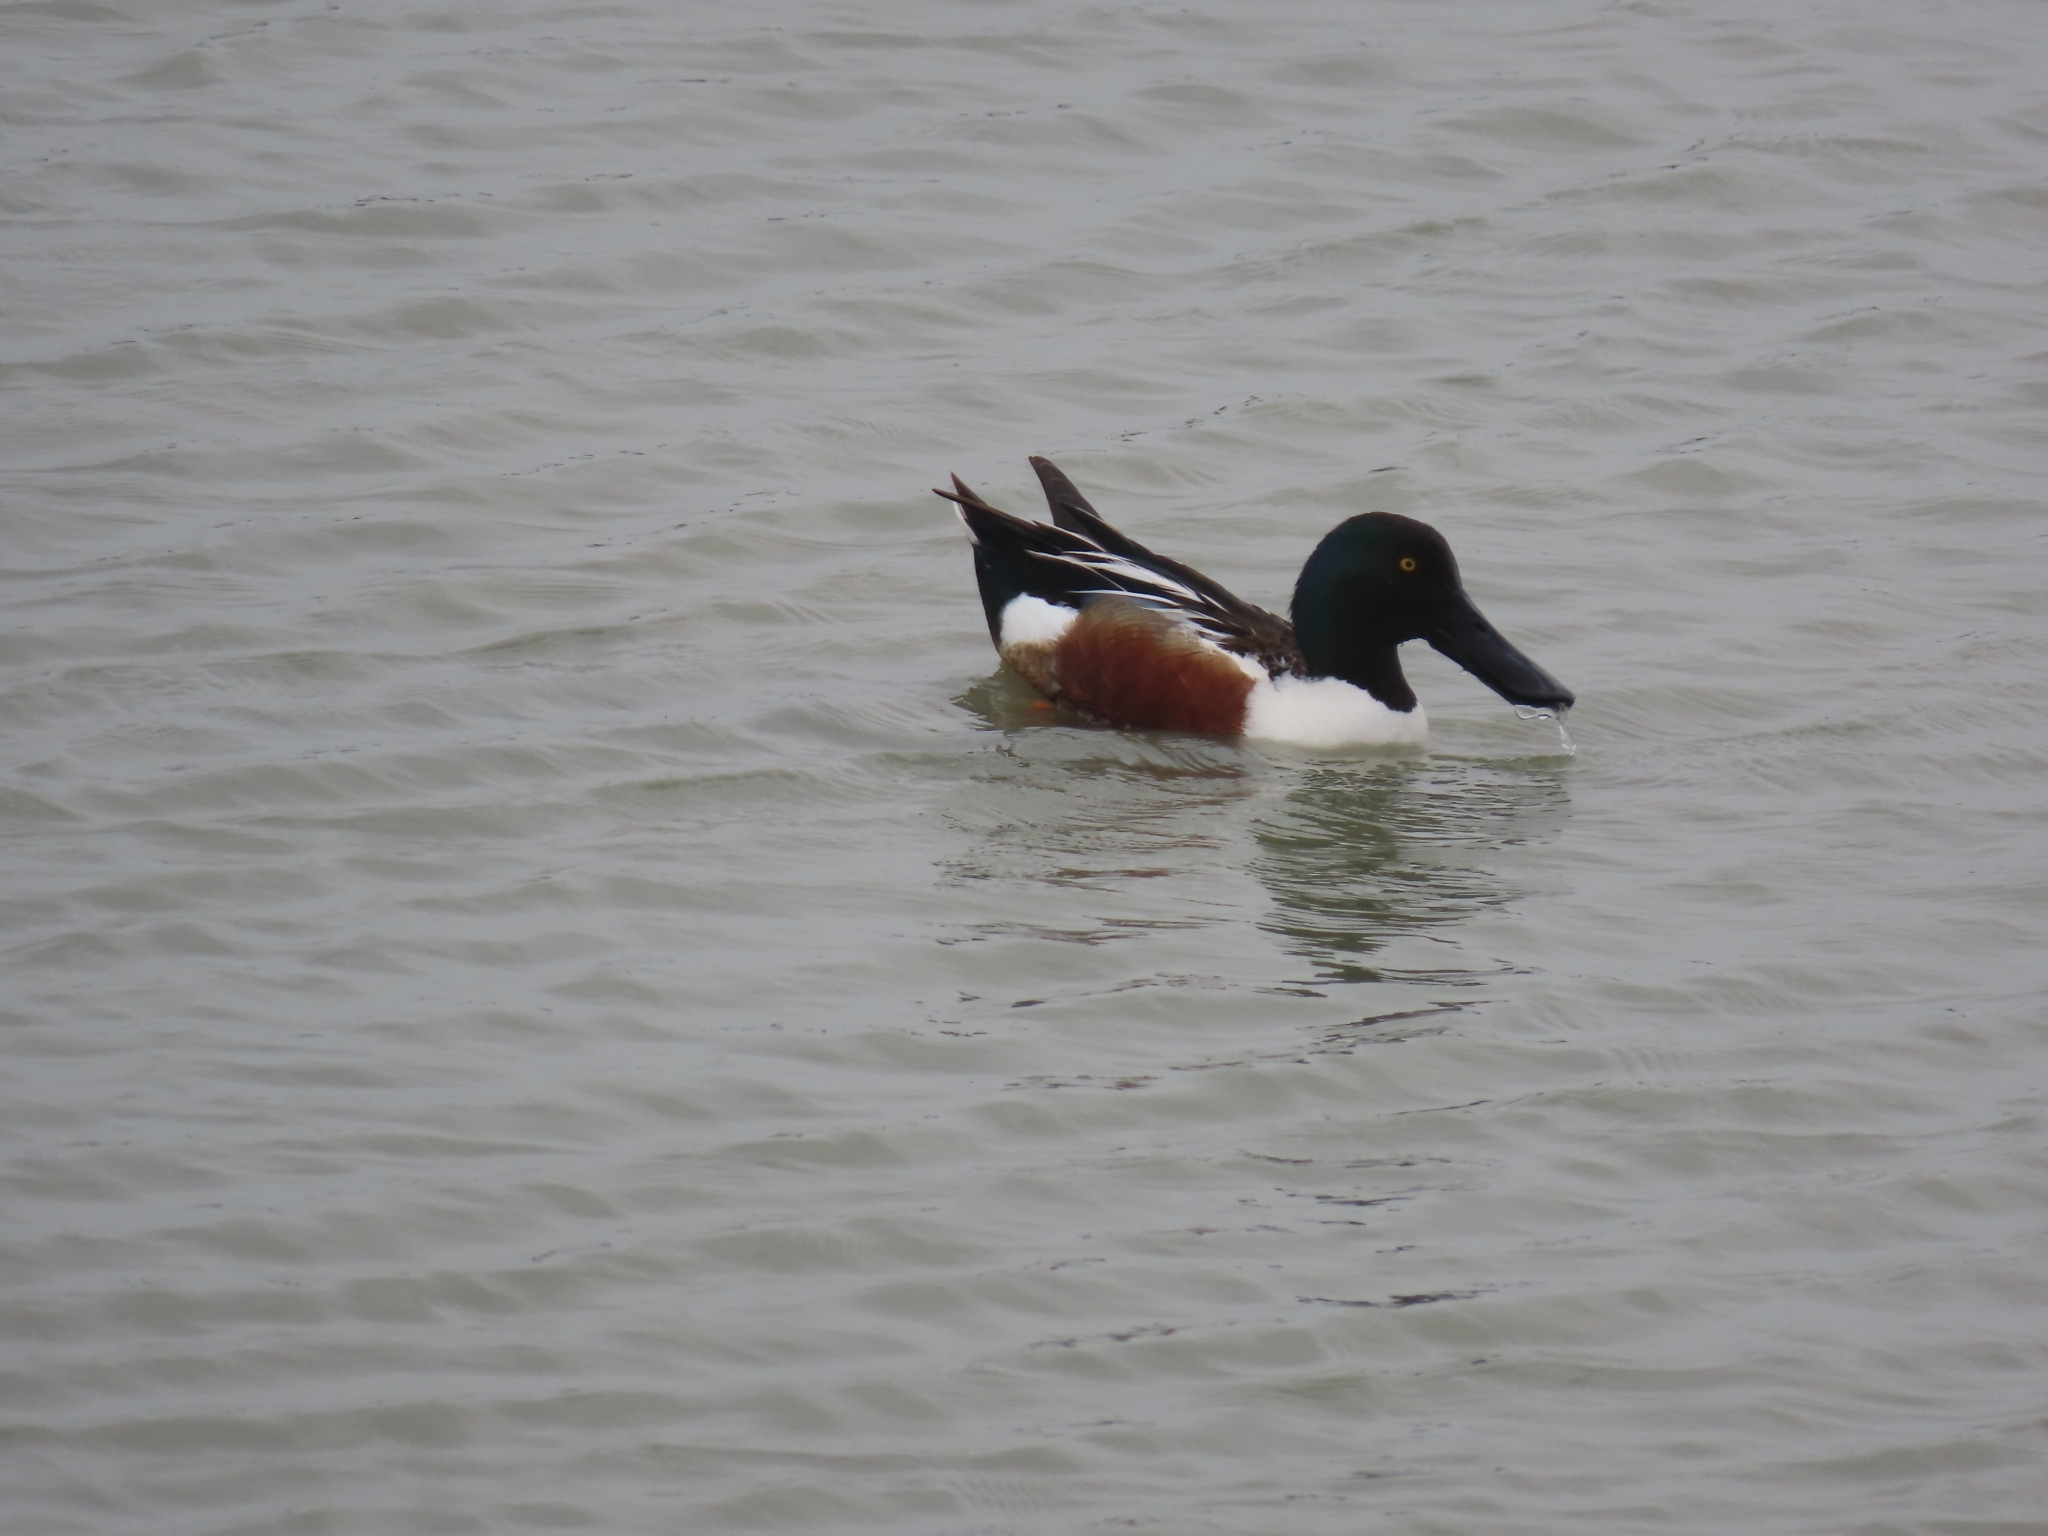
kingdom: Animalia
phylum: Chordata
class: Aves
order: Anseriformes
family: Anatidae
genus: Spatula
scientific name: Spatula clypeata
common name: Northern shoveler
